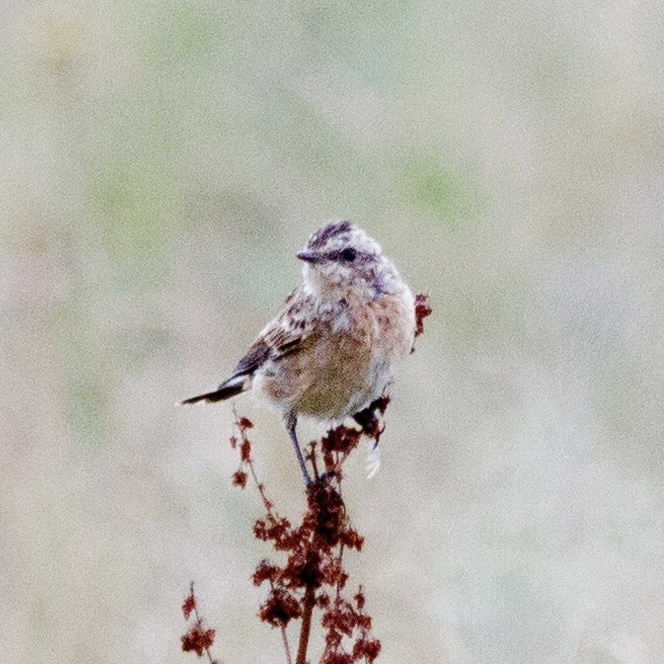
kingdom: Animalia
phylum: Chordata
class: Aves
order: Passeriformes
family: Muscicapidae
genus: Saxicola
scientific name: Saxicola rubetra
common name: Whinchat
